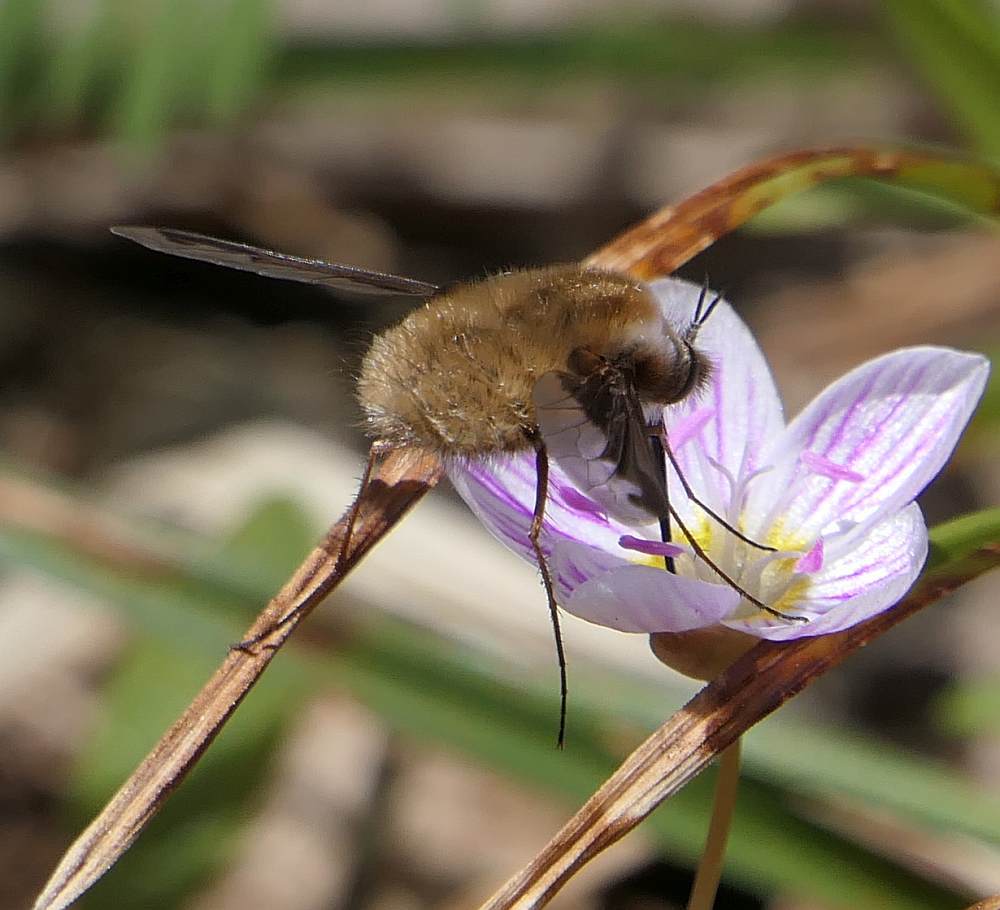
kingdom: Animalia
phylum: Arthropoda
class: Insecta
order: Diptera
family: Bombyliidae
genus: Bombylius
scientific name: Bombylius major
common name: Bee fly
